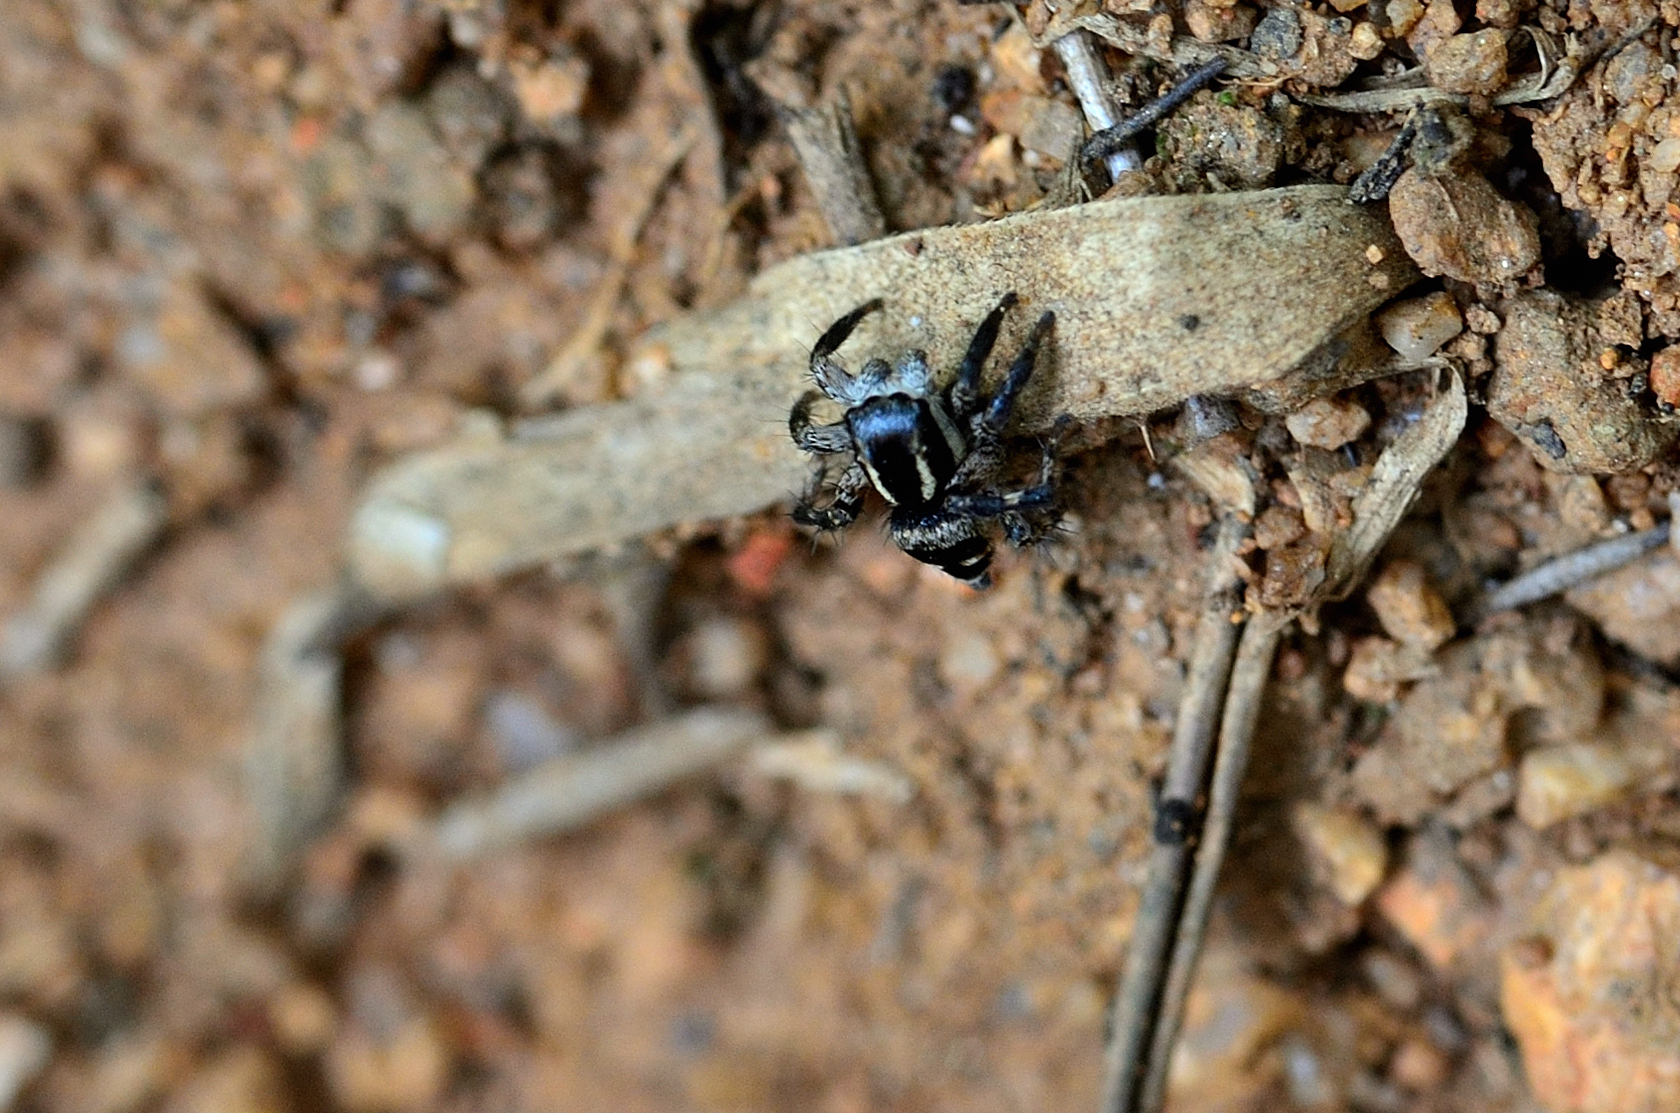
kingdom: Animalia
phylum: Arthropoda
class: Arachnida
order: Araneae
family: Salticidae
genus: Stenaelurillus
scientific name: Stenaelurillus shwetamukhi
